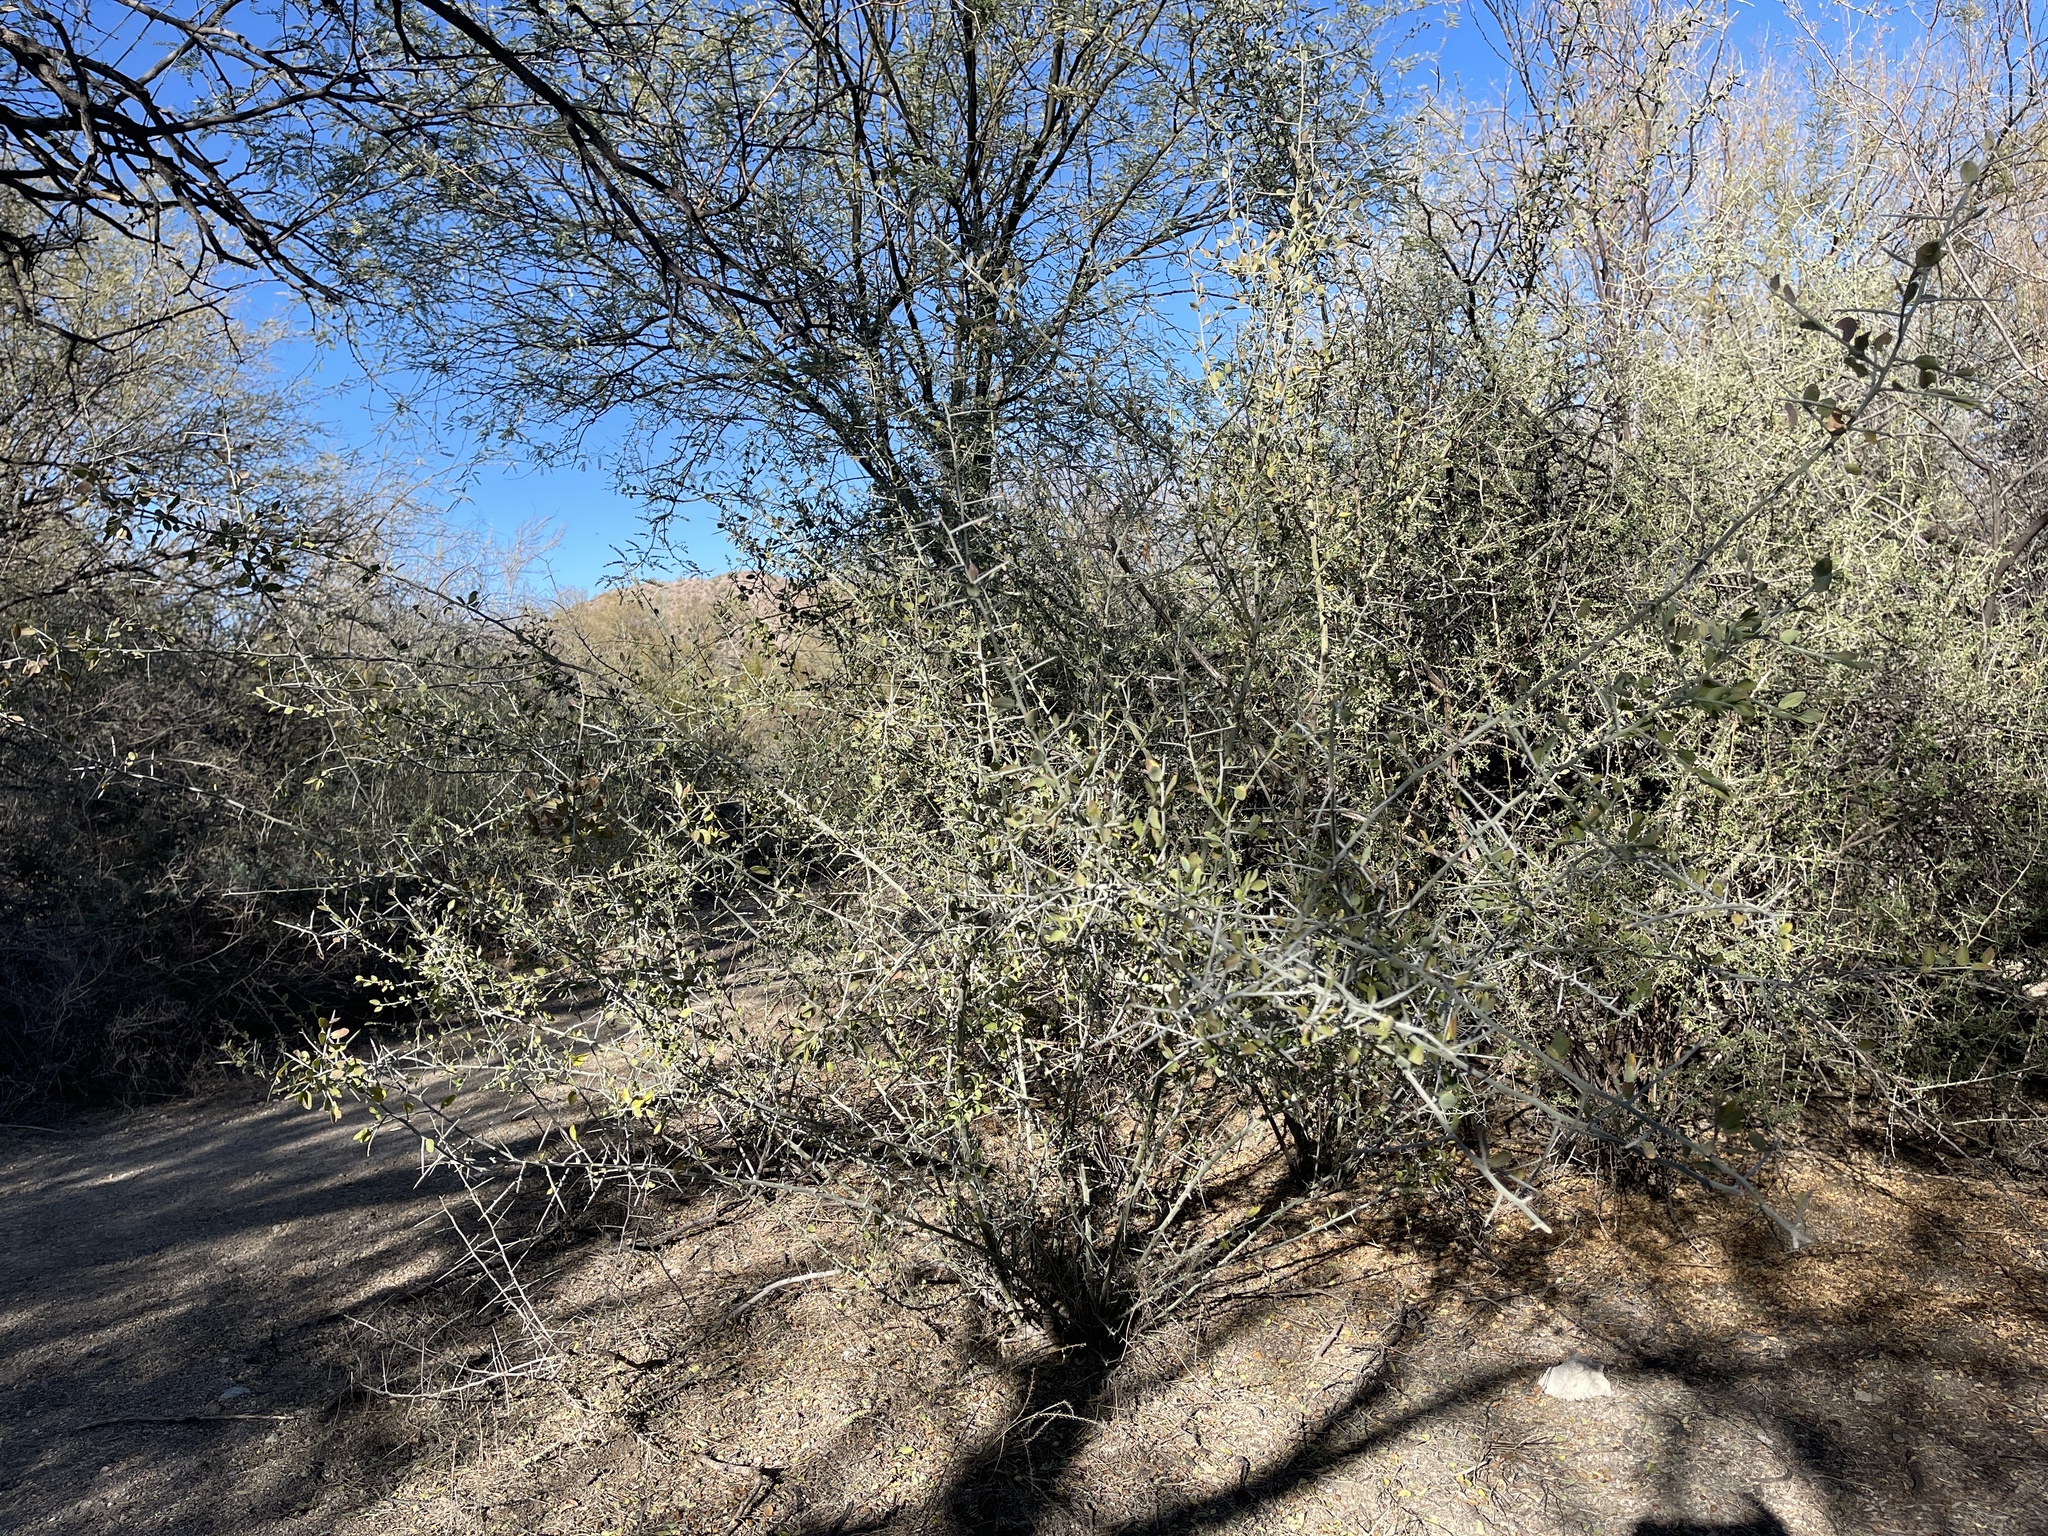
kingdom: Plantae
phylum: Tracheophyta
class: Magnoliopsida
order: Rosales
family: Rhamnaceae
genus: Sarcomphalus
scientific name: Sarcomphalus obtusifolius
